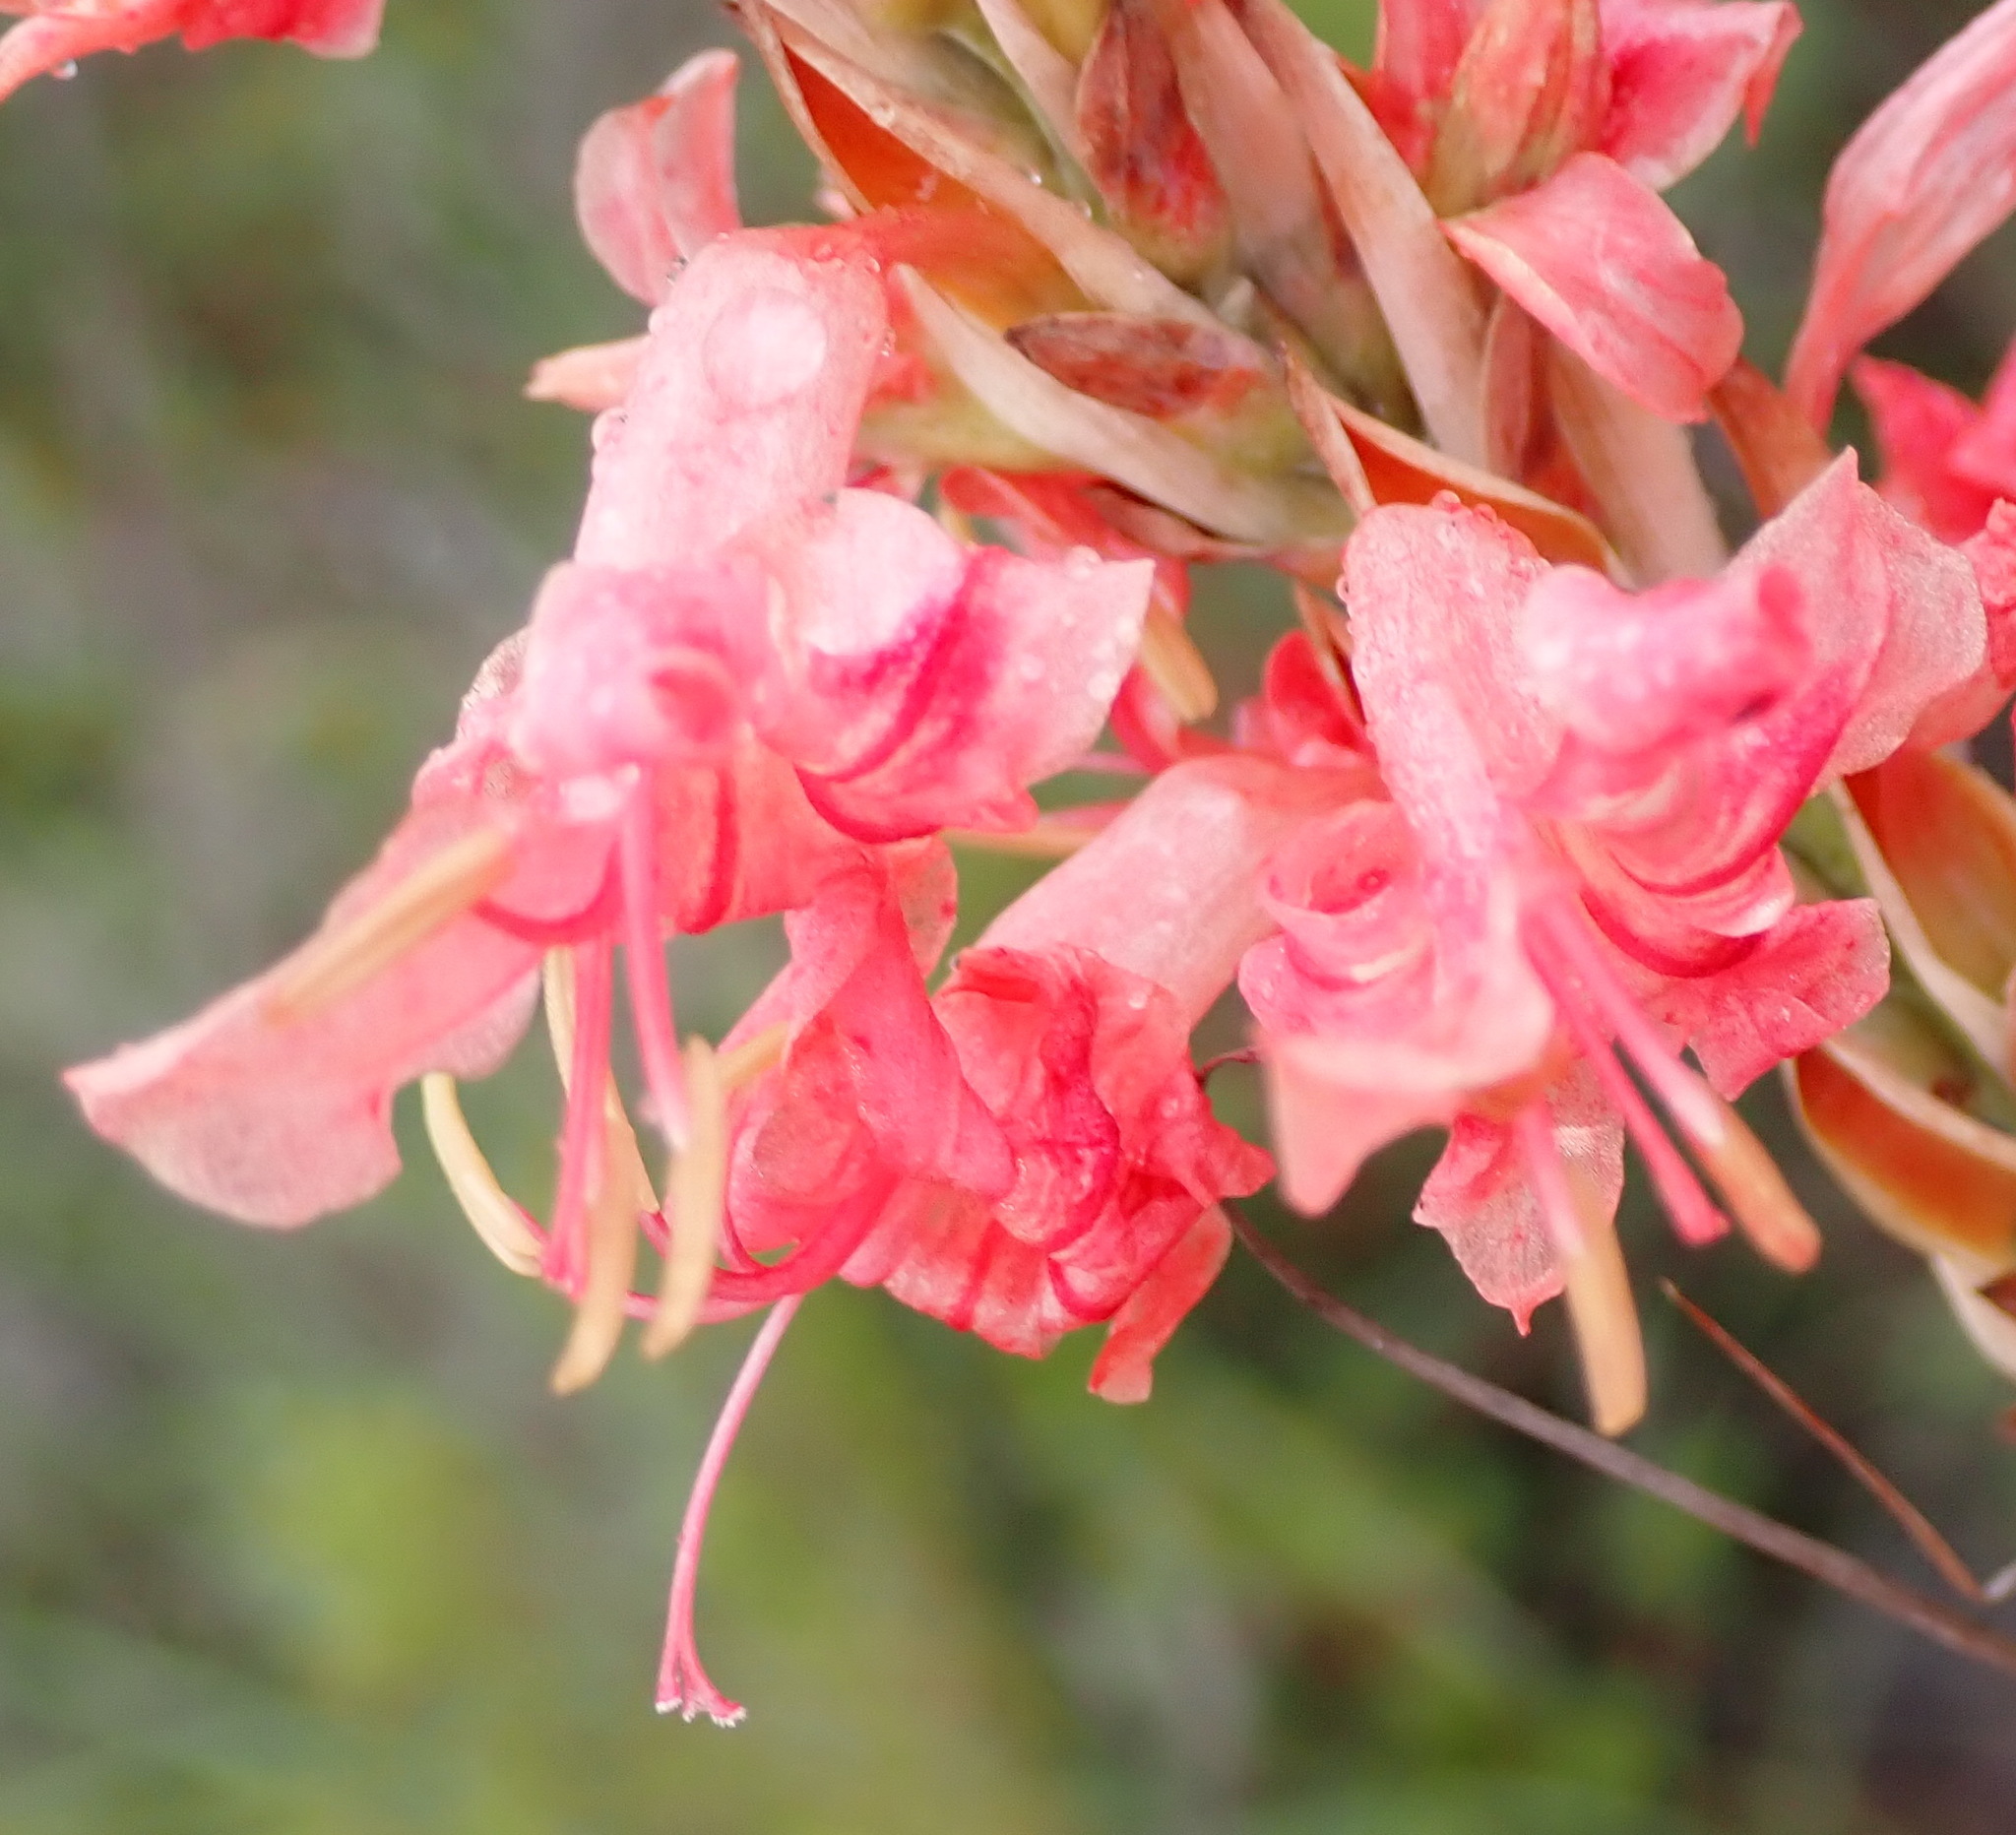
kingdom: Plantae
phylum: Tracheophyta
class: Liliopsida
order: Asparagales
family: Iridaceae
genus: Tritoniopsis
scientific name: Tritoniopsis triticea
